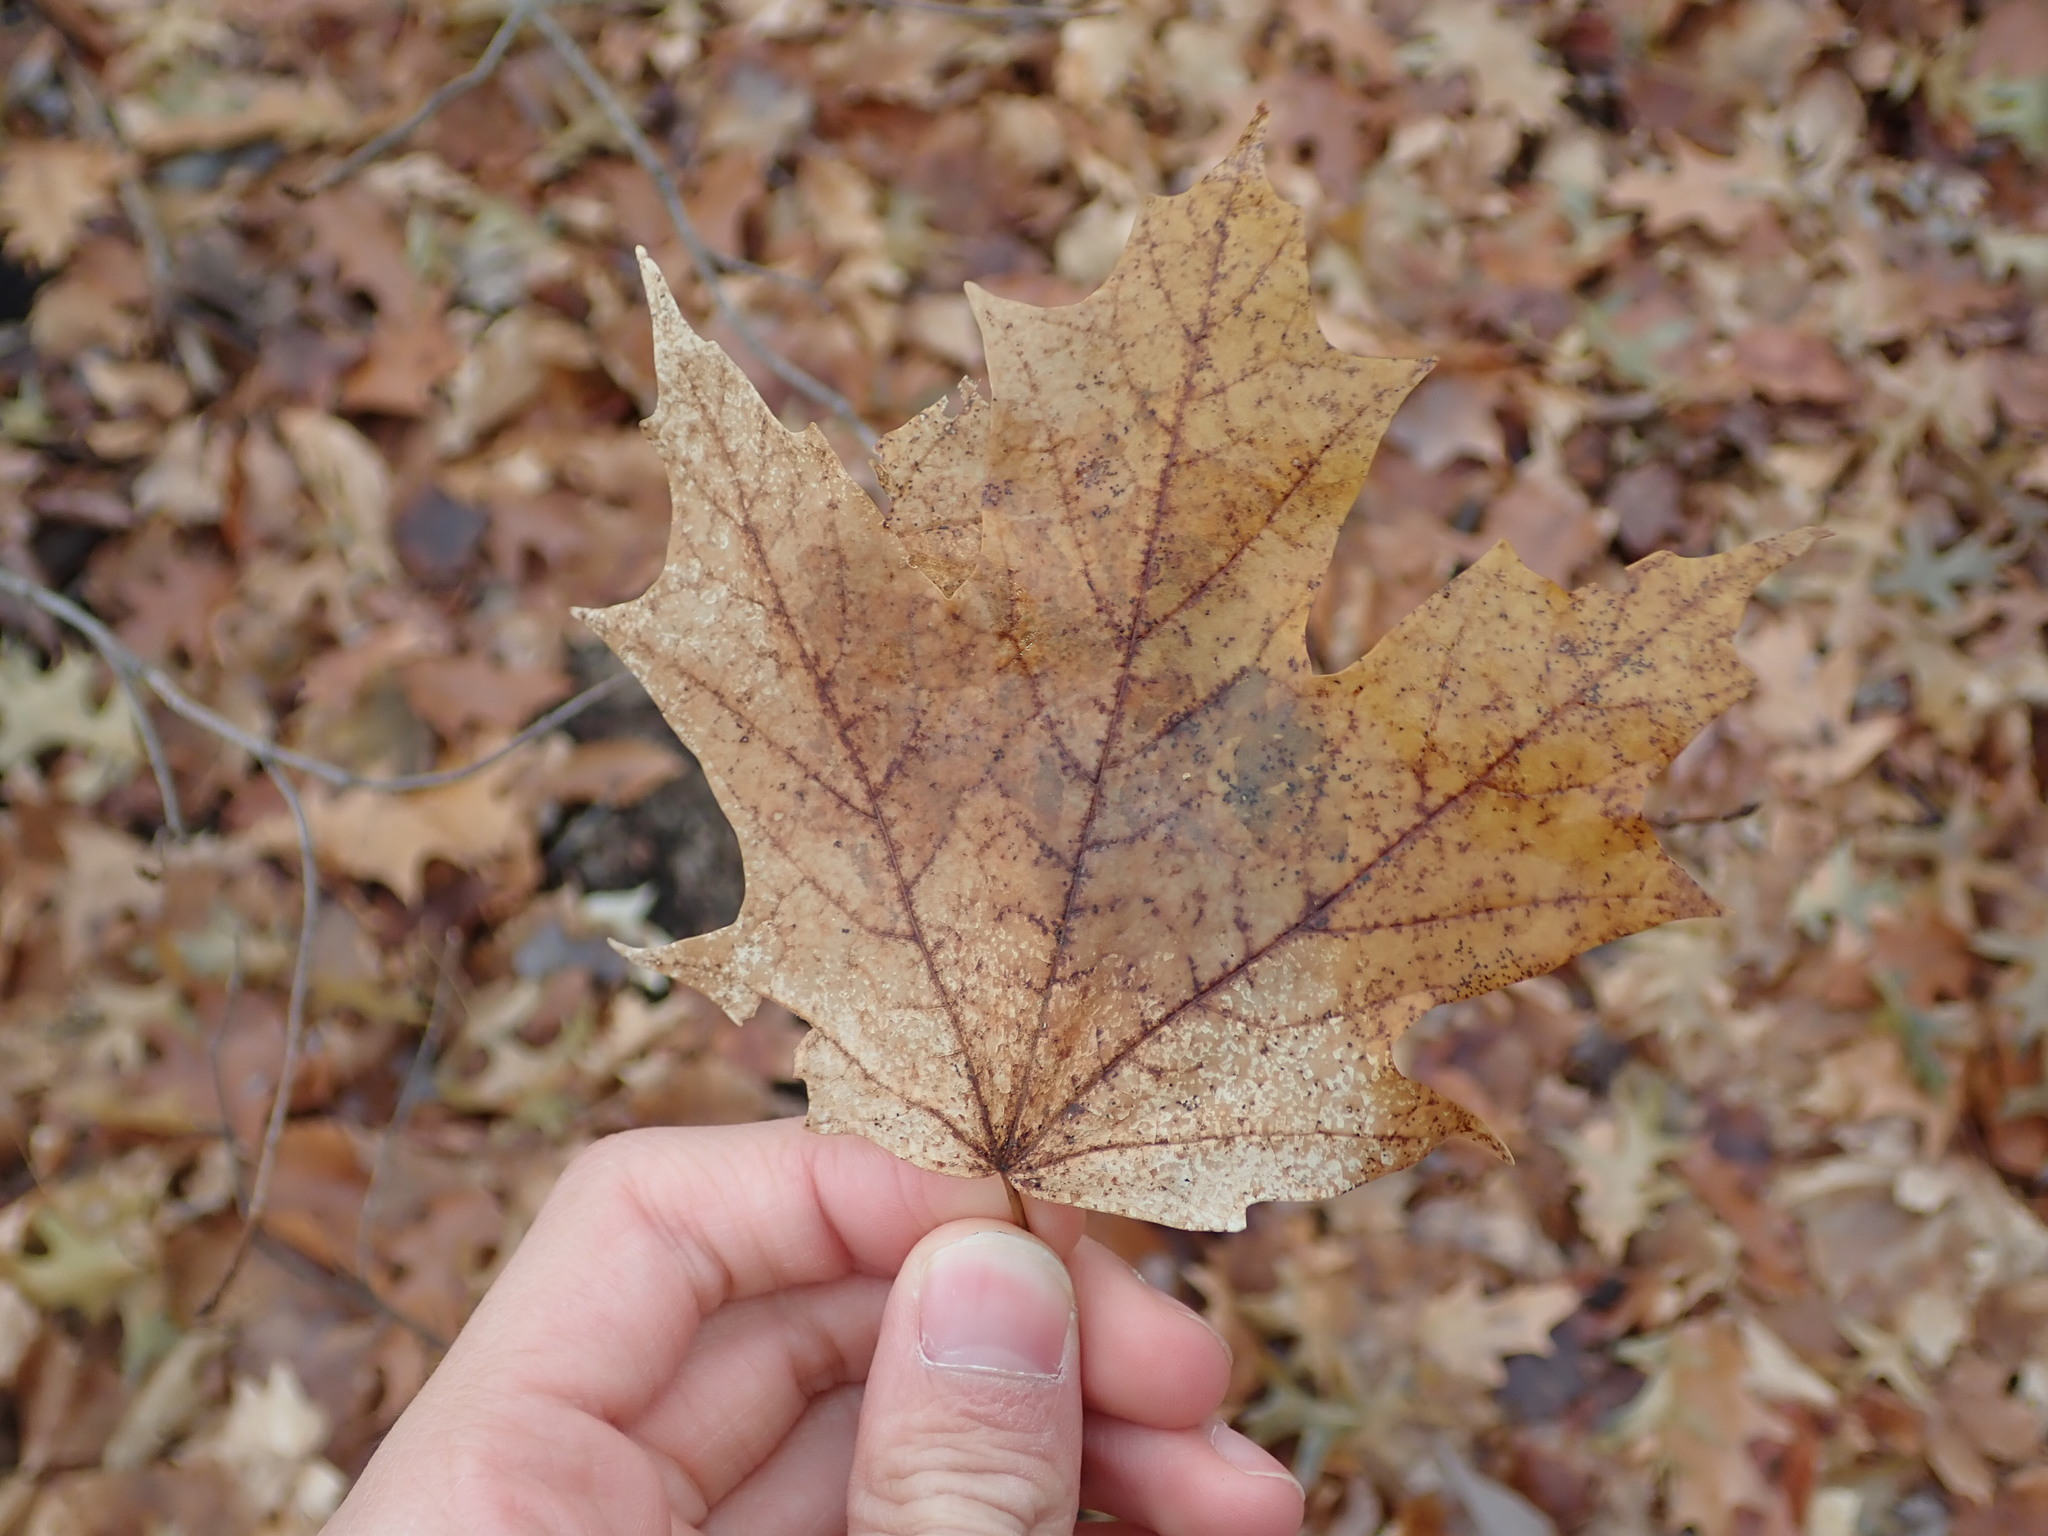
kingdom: Plantae
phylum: Tracheophyta
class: Magnoliopsida
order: Sapindales
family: Sapindaceae
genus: Acer
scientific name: Acer saccharum
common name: Sugar maple
